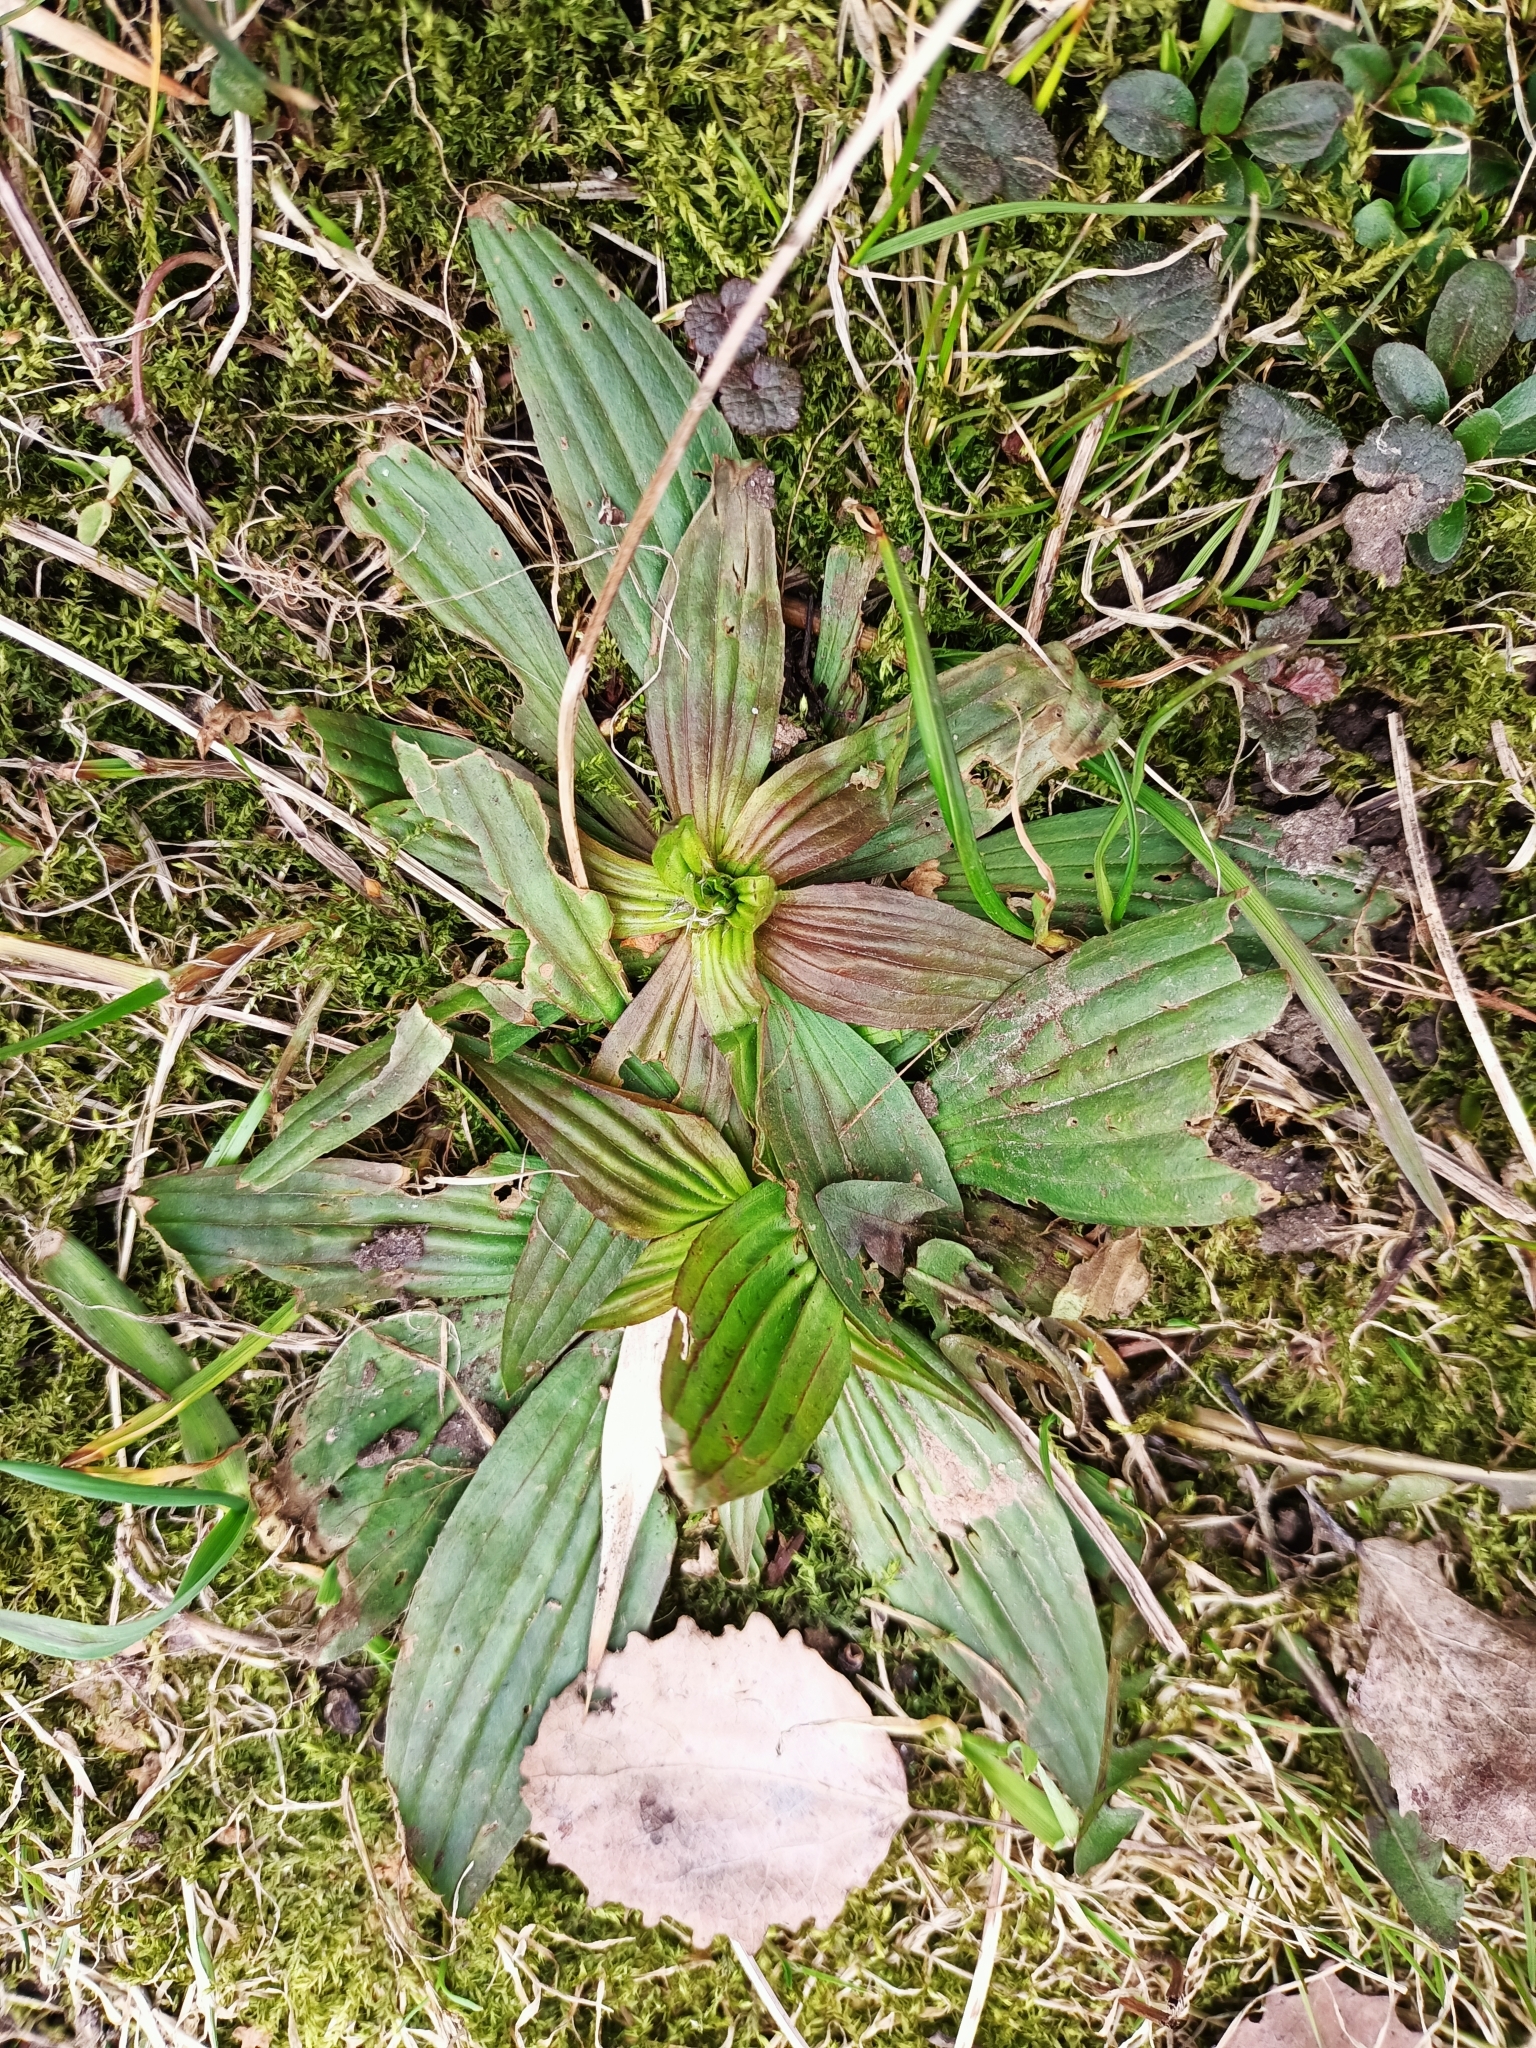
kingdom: Plantae
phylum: Tracheophyta
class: Magnoliopsida
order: Lamiales
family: Plantaginaceae
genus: Plantago
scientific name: Plantago lanceolata
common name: Ribwort plantain
